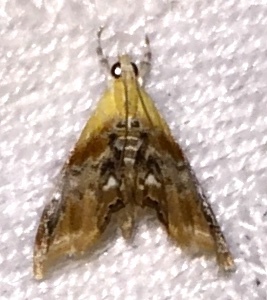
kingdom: Animalia
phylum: Arthropoda
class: Insecta
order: Lepidoptera
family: Crambidae
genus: Dicymolomia
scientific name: Dicymolomia julianalis
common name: Julia's dicymolomia moth
